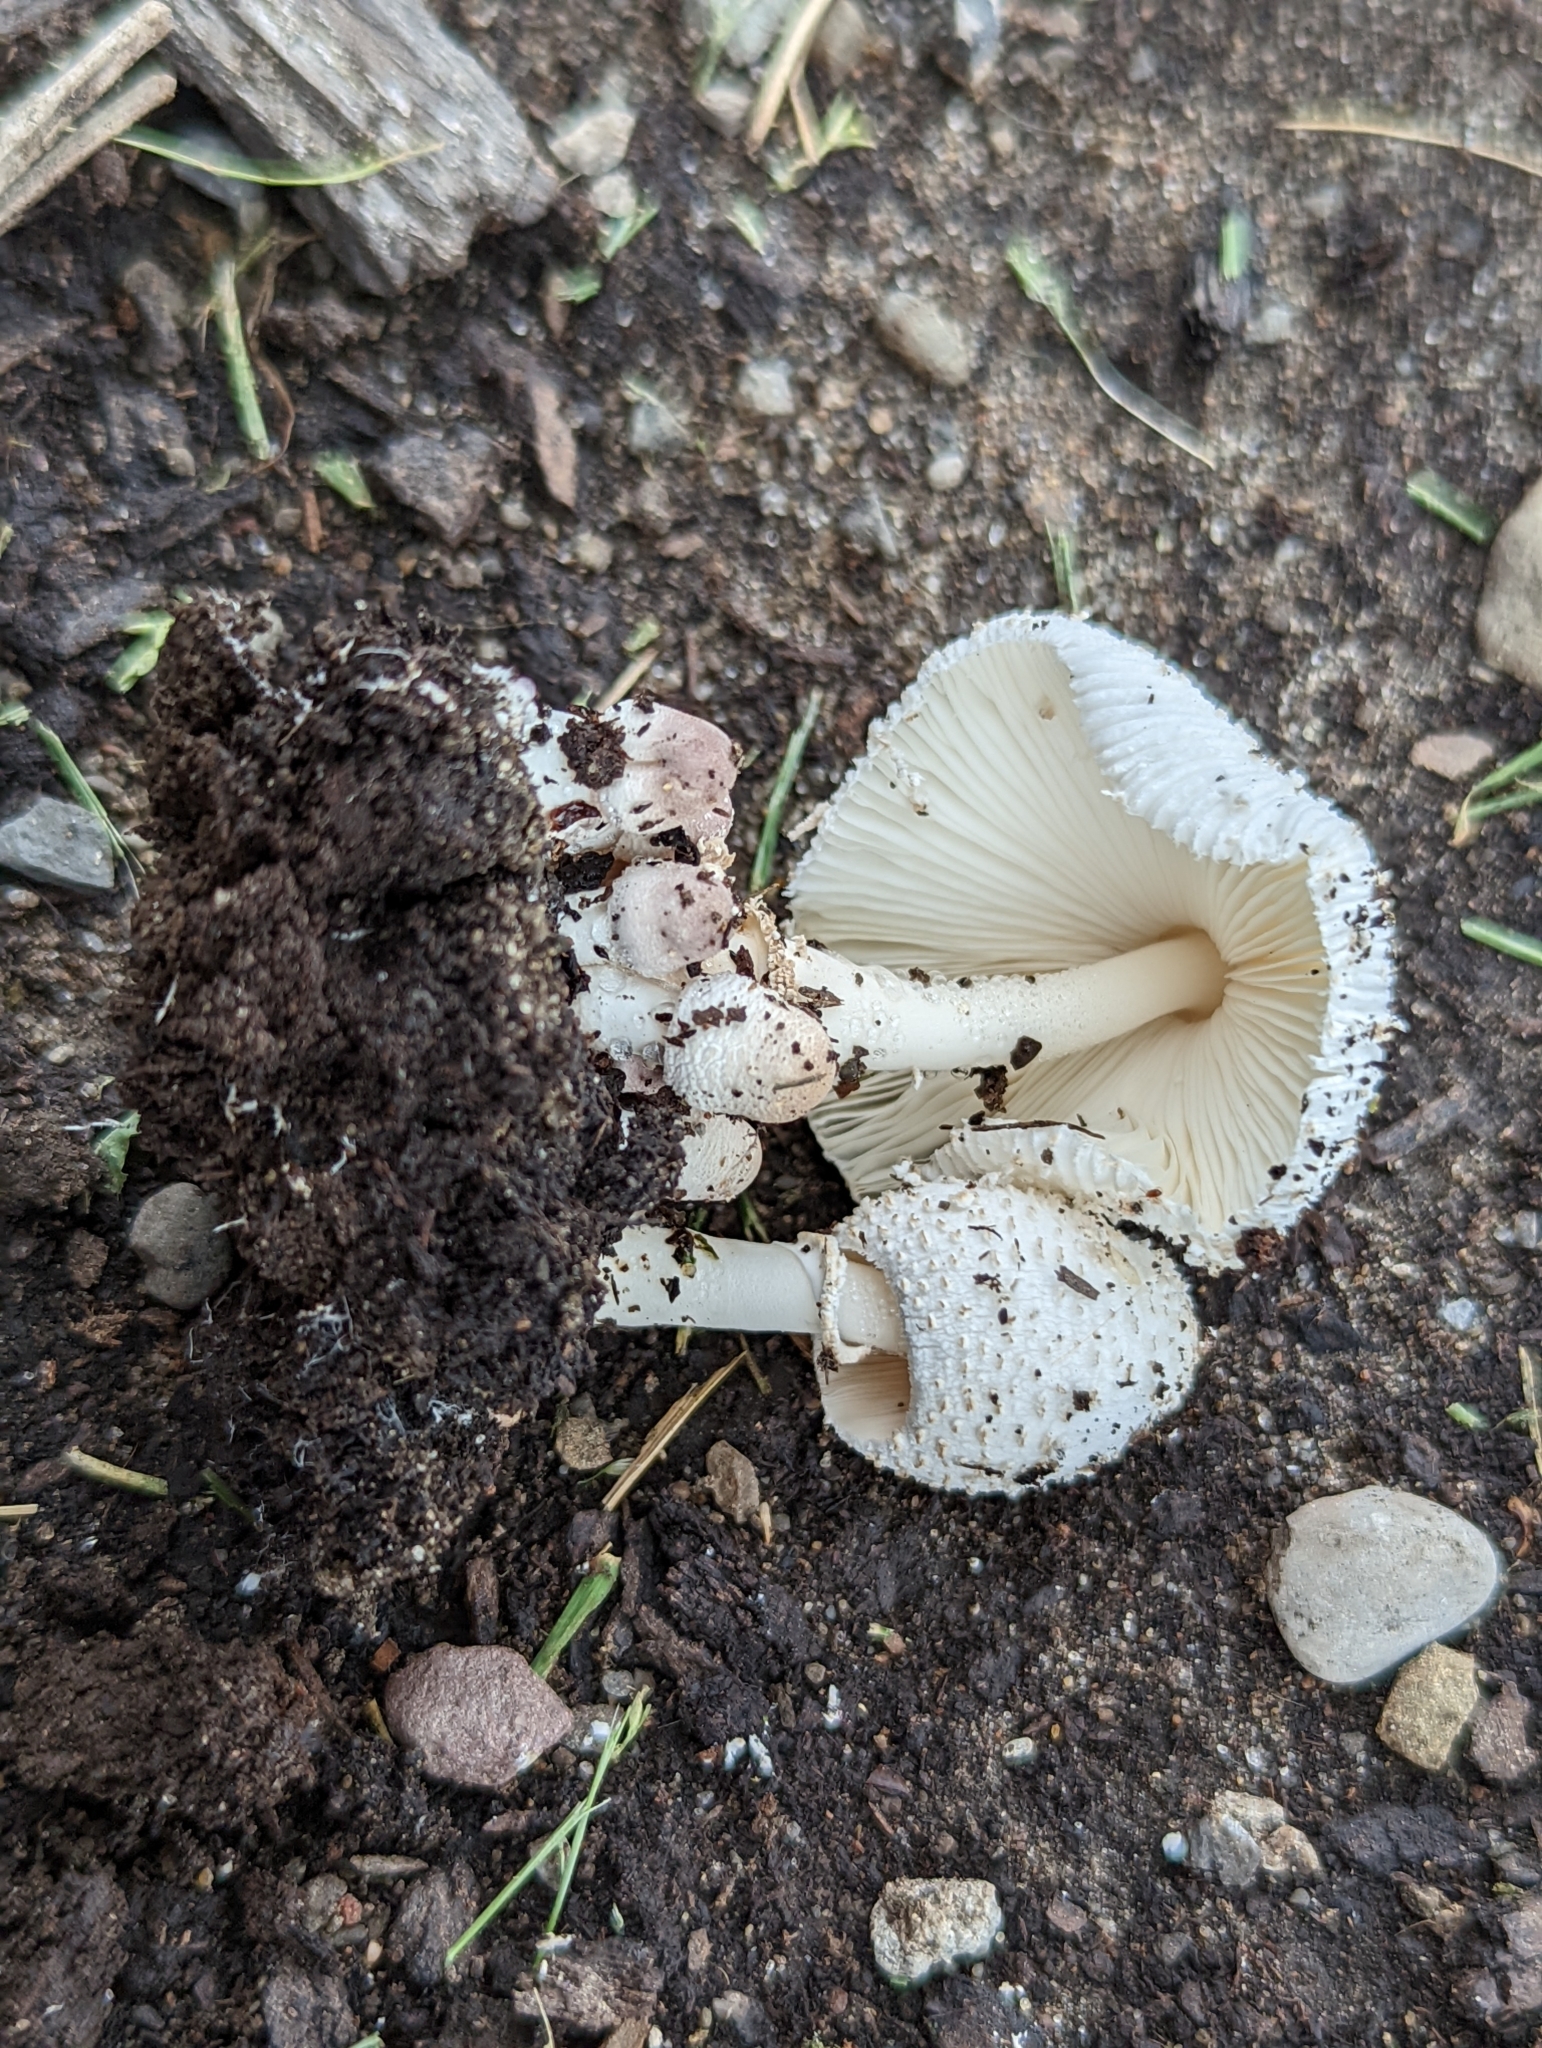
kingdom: Fungi
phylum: Basidiomycota
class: Agaricomycetes
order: Agaricales
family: Agaricaceae
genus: Leucocoprinus
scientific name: Leucocoprinus cepistipes
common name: Onion-stalk parasol
